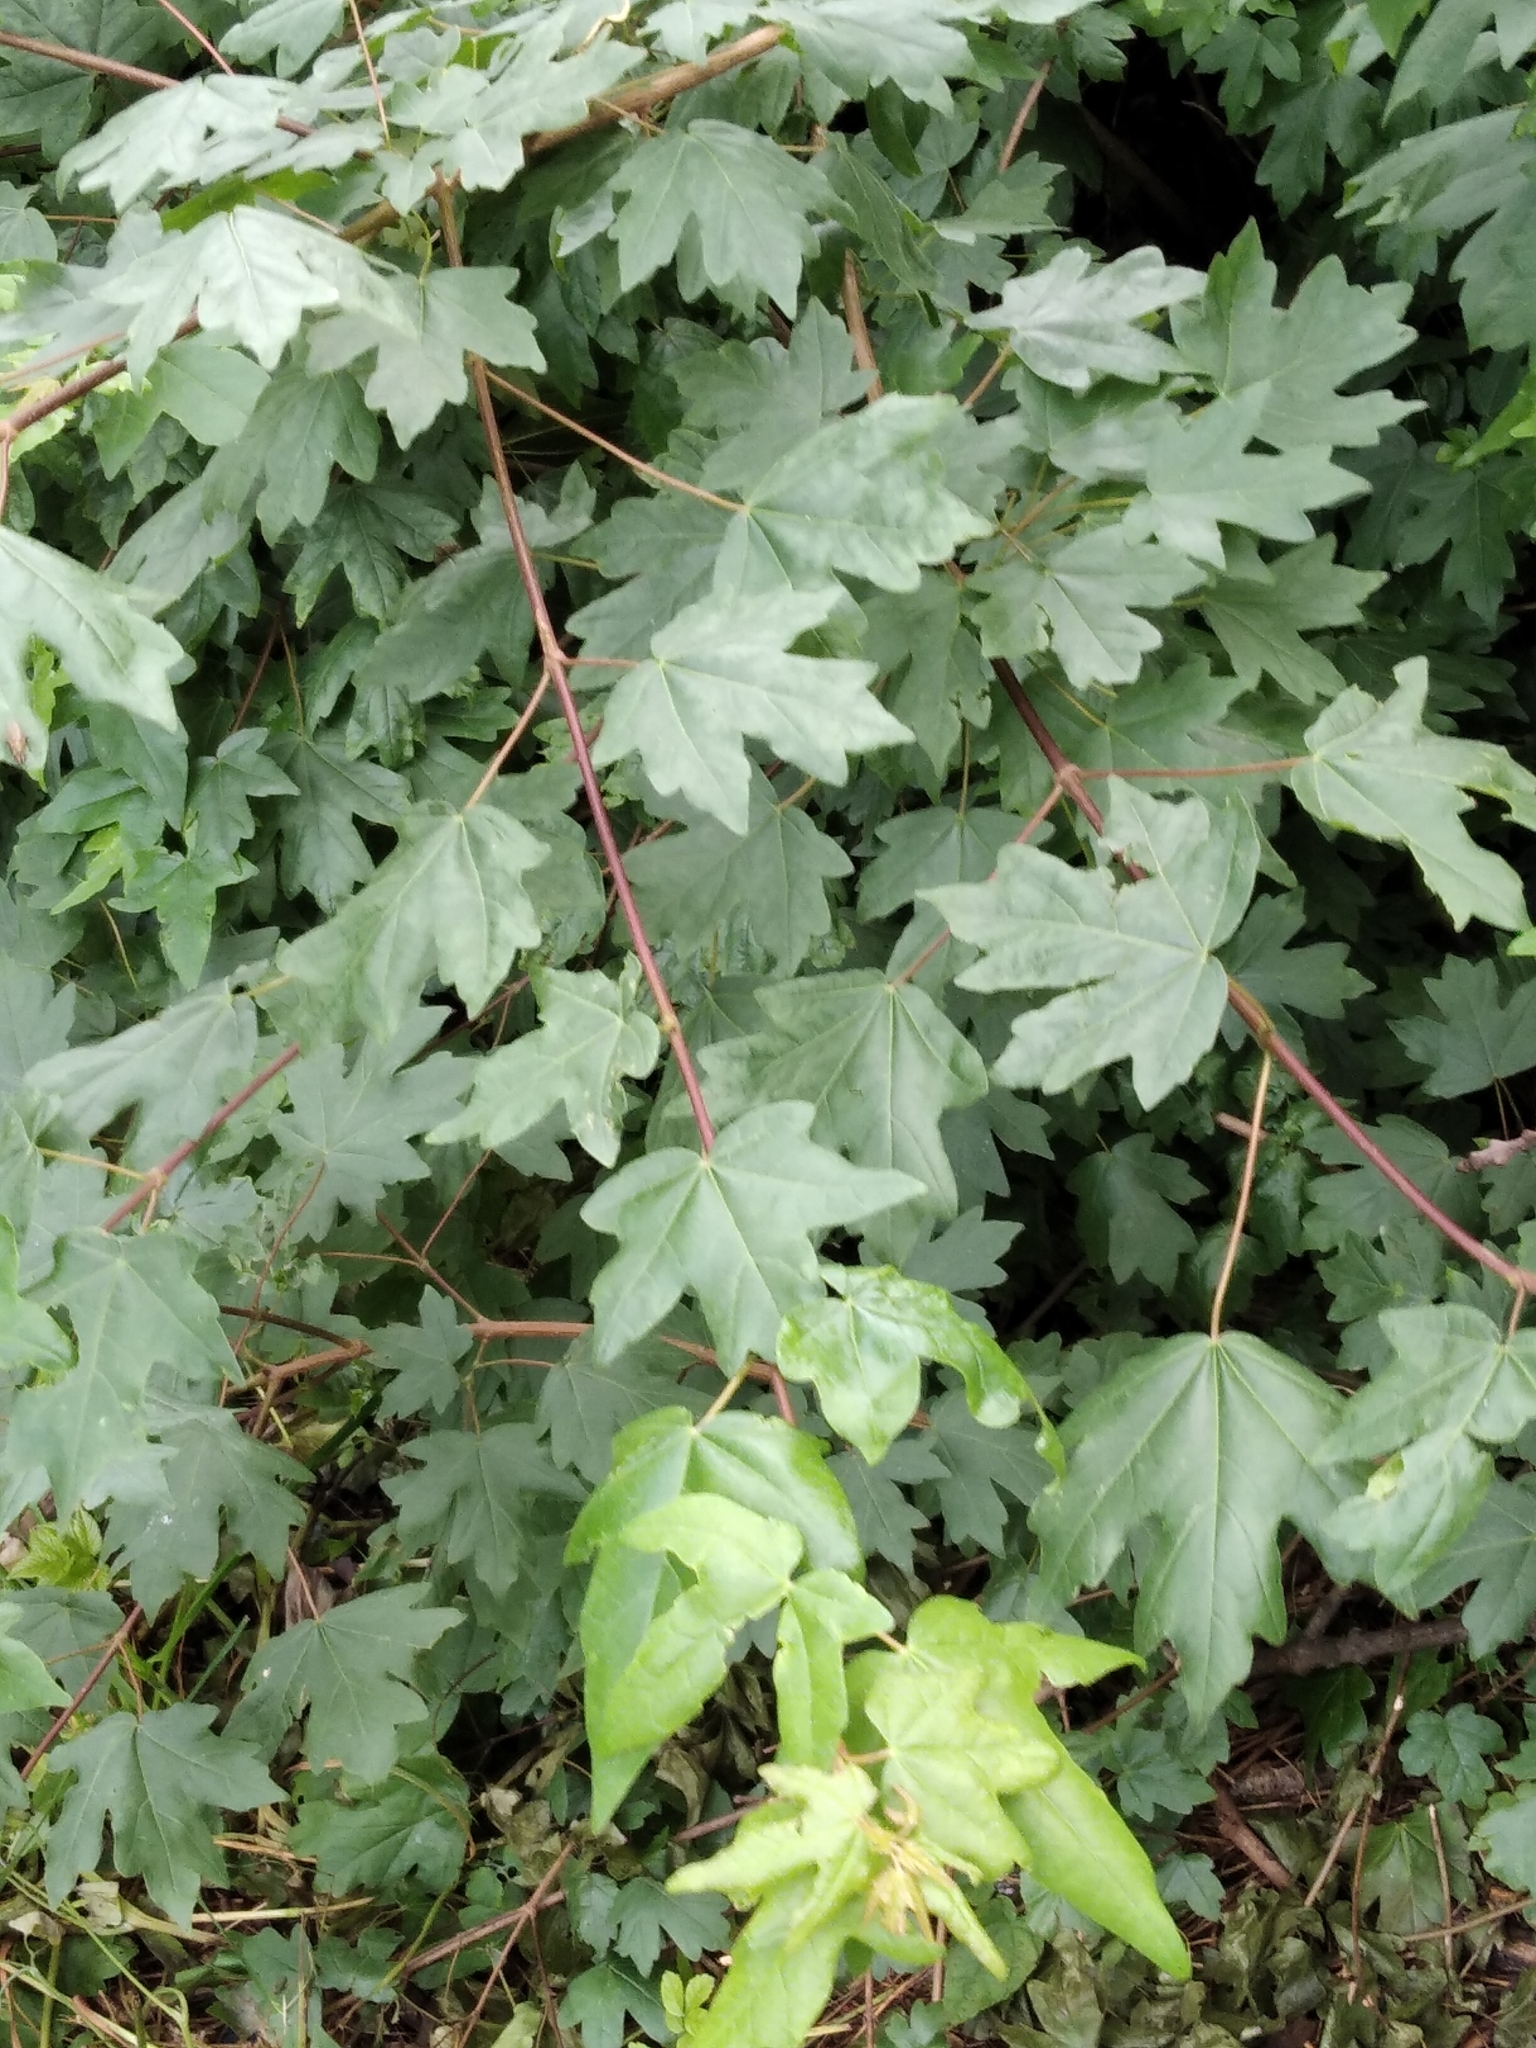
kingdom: Plantae
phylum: Tracheophyta
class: Magnoliopsida
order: Sapindales
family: Sapindaceae
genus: Acer
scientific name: Acer campestre
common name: Field maple
